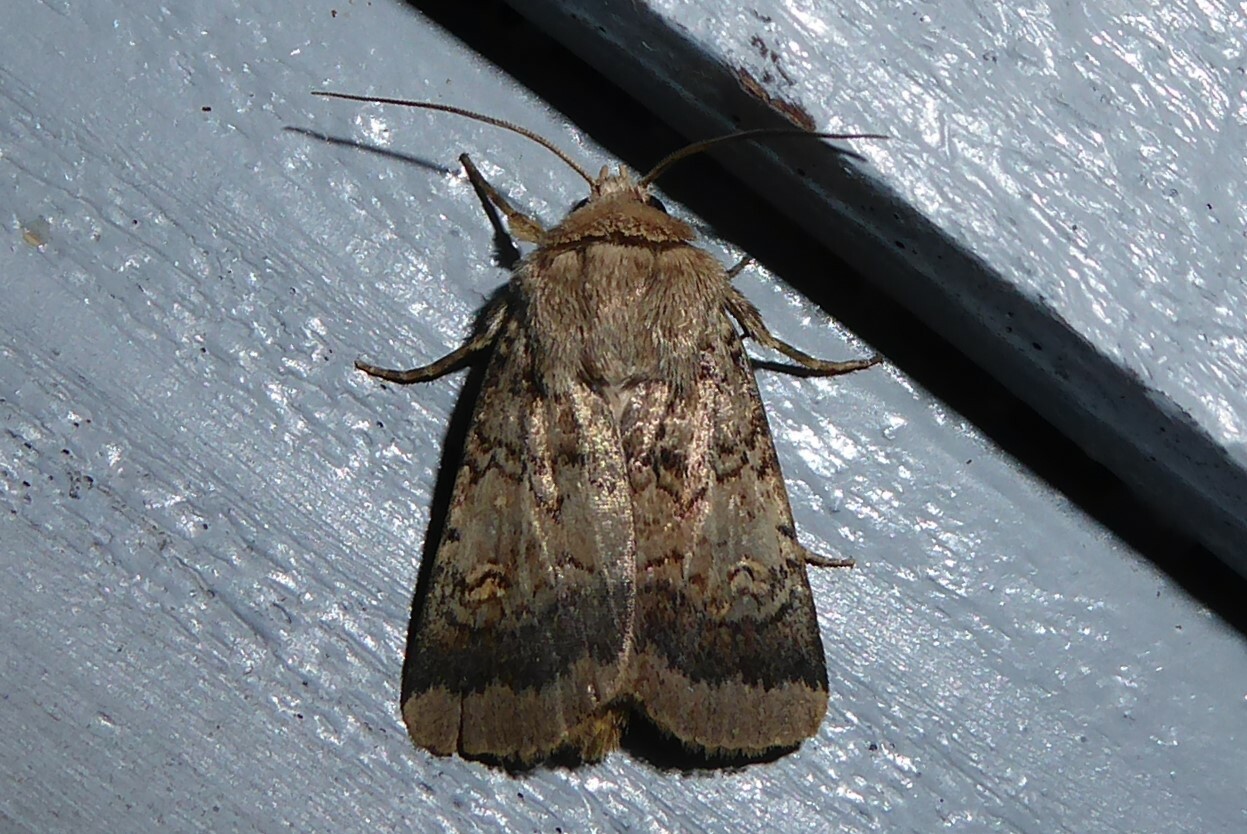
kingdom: Animalia
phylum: Arthropoda
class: Insecta
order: Lepidoptera
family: Noctuidae
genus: Proteuxoa
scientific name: Proteuxoa tetronycha
